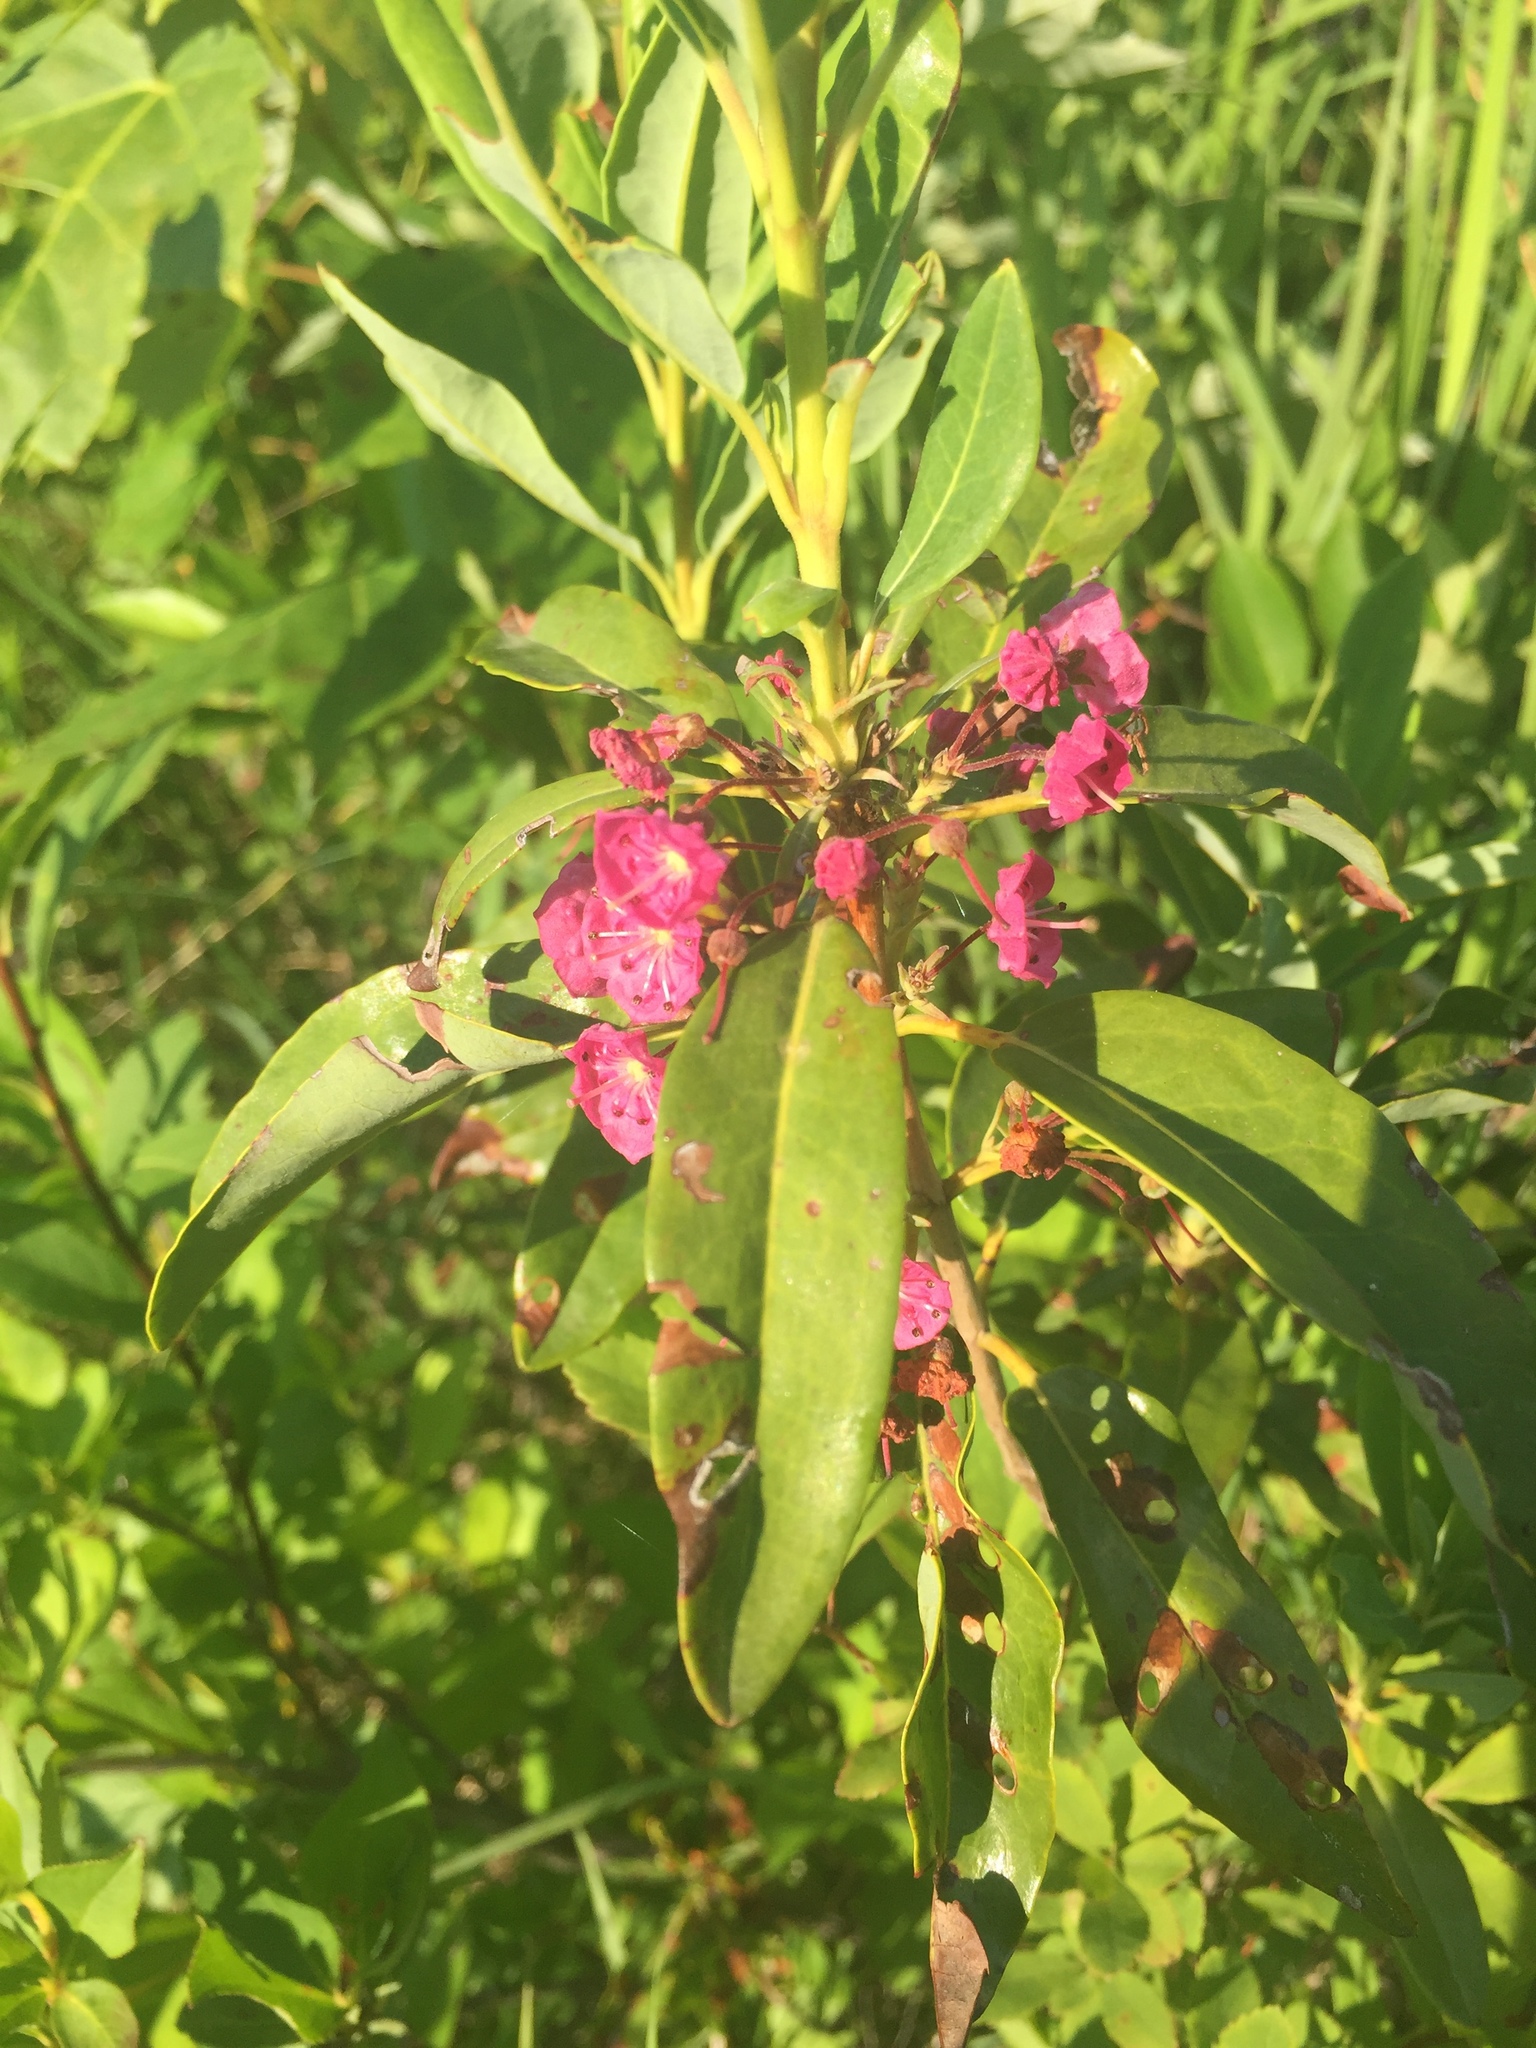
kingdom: Plantae
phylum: Tracheophyta
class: Magnoliopsida
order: Ericales
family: Ericaceae
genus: Kalmia
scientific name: Kalmia angustifolia
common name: Sheep-laurel
